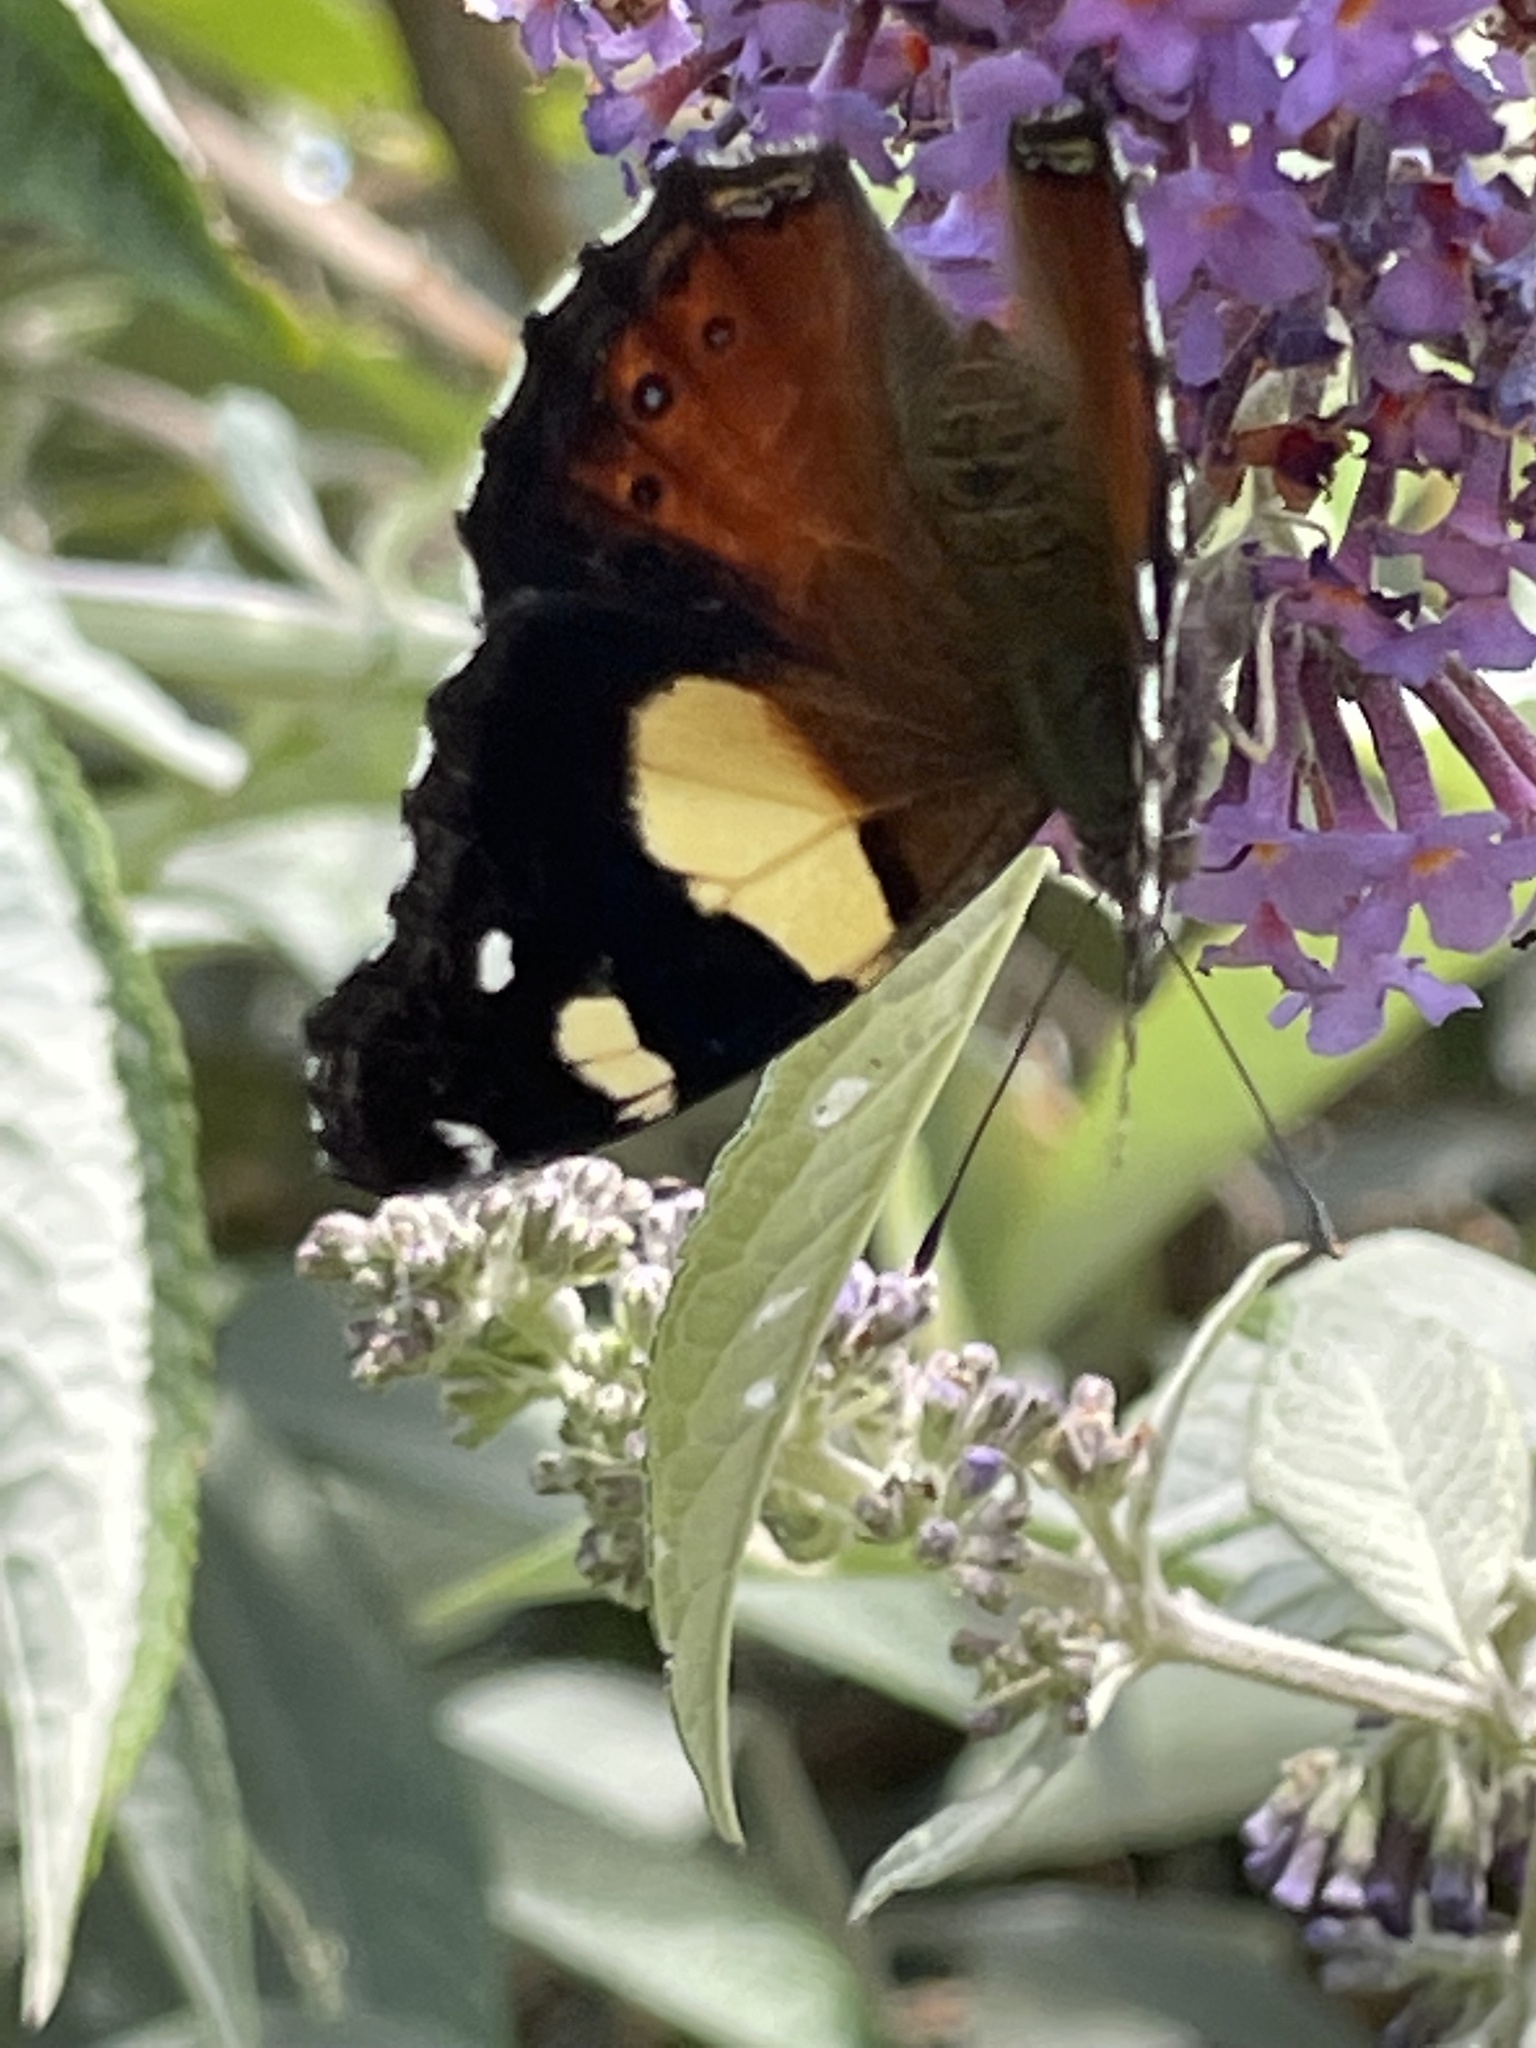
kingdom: Animalia
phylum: Arthropoda
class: Insecta
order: Lepidoptera
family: Nymphalidae
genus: Vanessa
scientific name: Vanessa itea
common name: Yellow admiral
